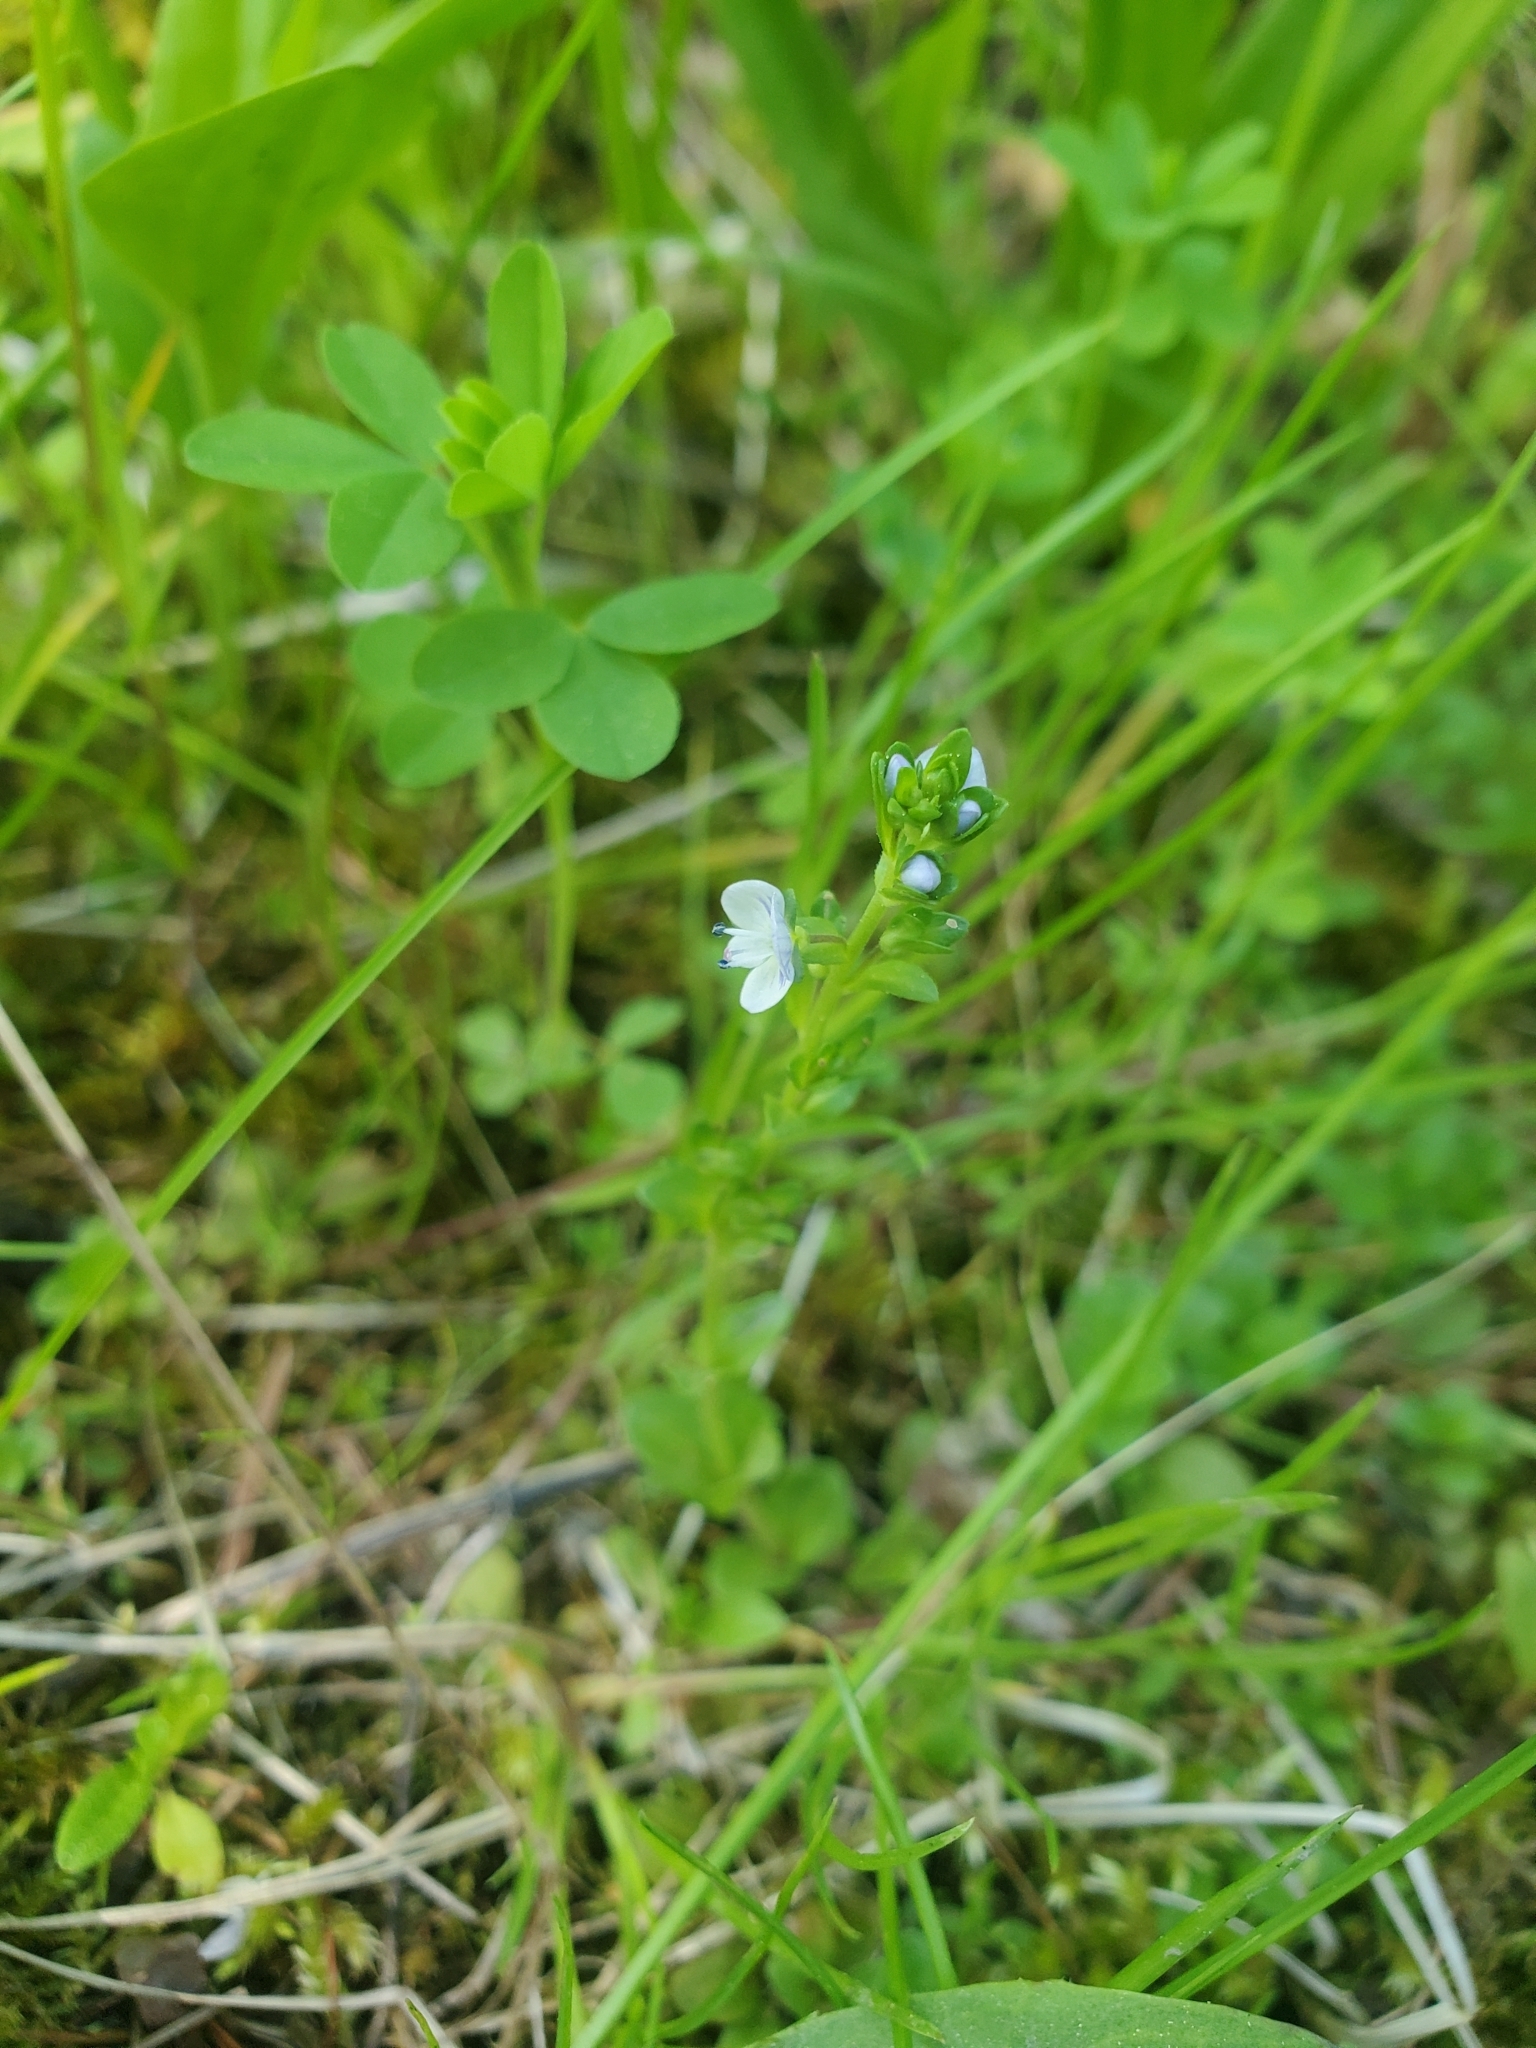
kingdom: Plantae
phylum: Tracheophyta
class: Magnoliopsida
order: Lamiales
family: Plantaginaceae
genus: Veronica
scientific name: Veronica serpyllifolia
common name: Thyme-leaved speedwell
